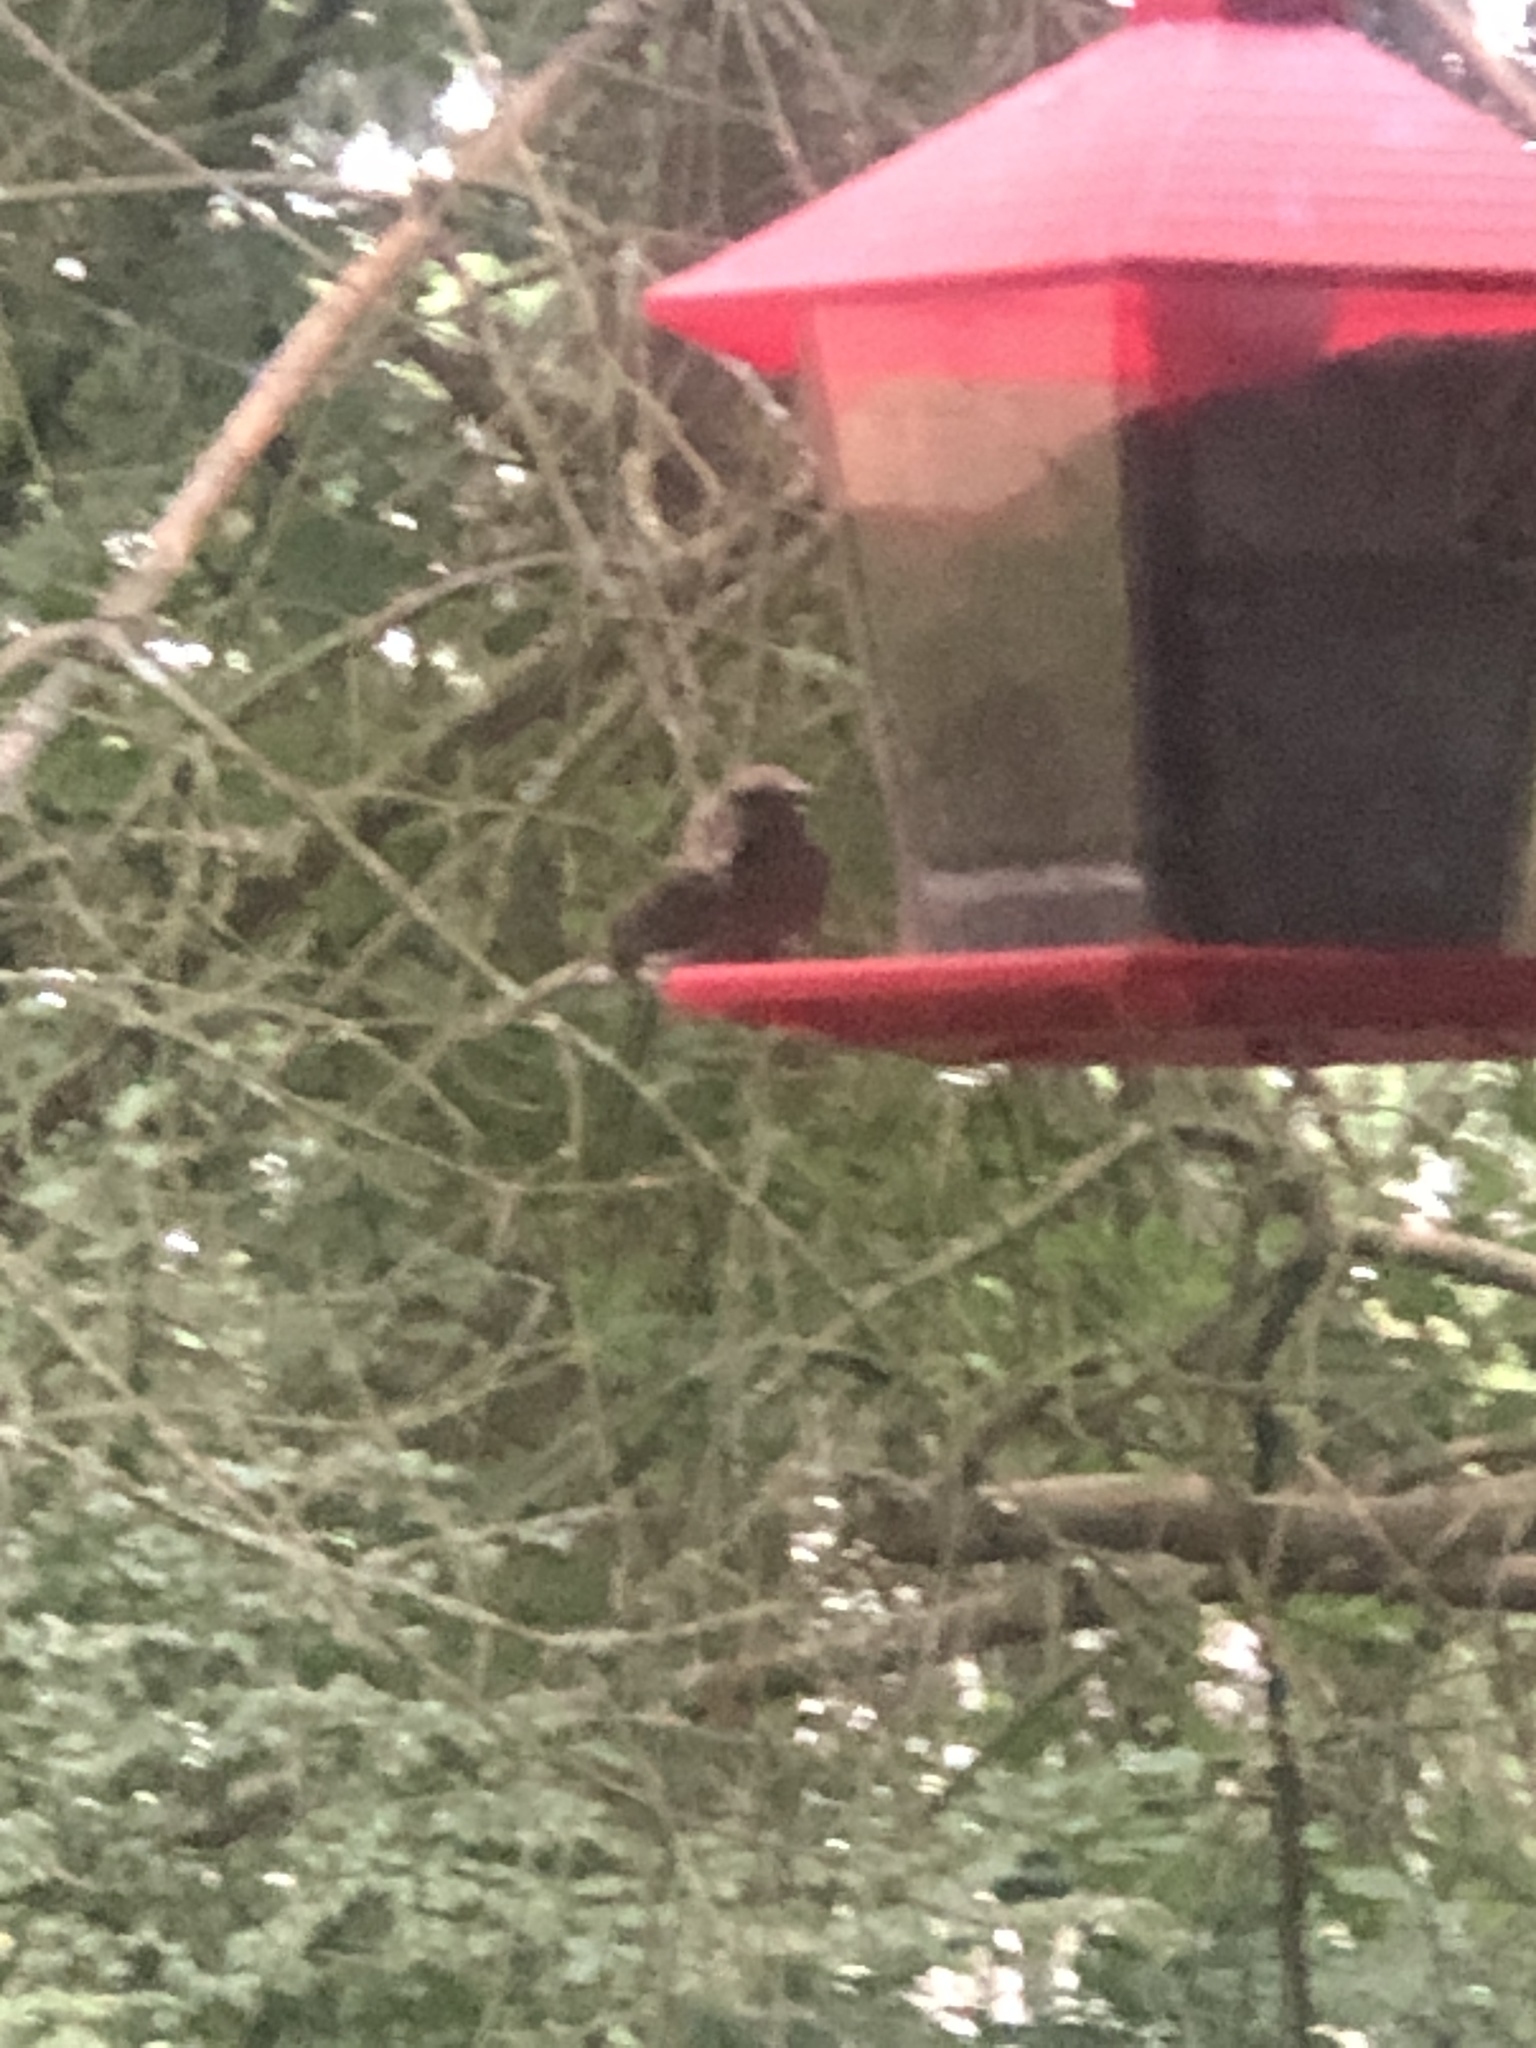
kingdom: Animalia
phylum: Chordata
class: Aves
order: Passeriformes
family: Fringillidae
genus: Haemorhous
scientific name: Haemorhous mexicanus
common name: House finch
